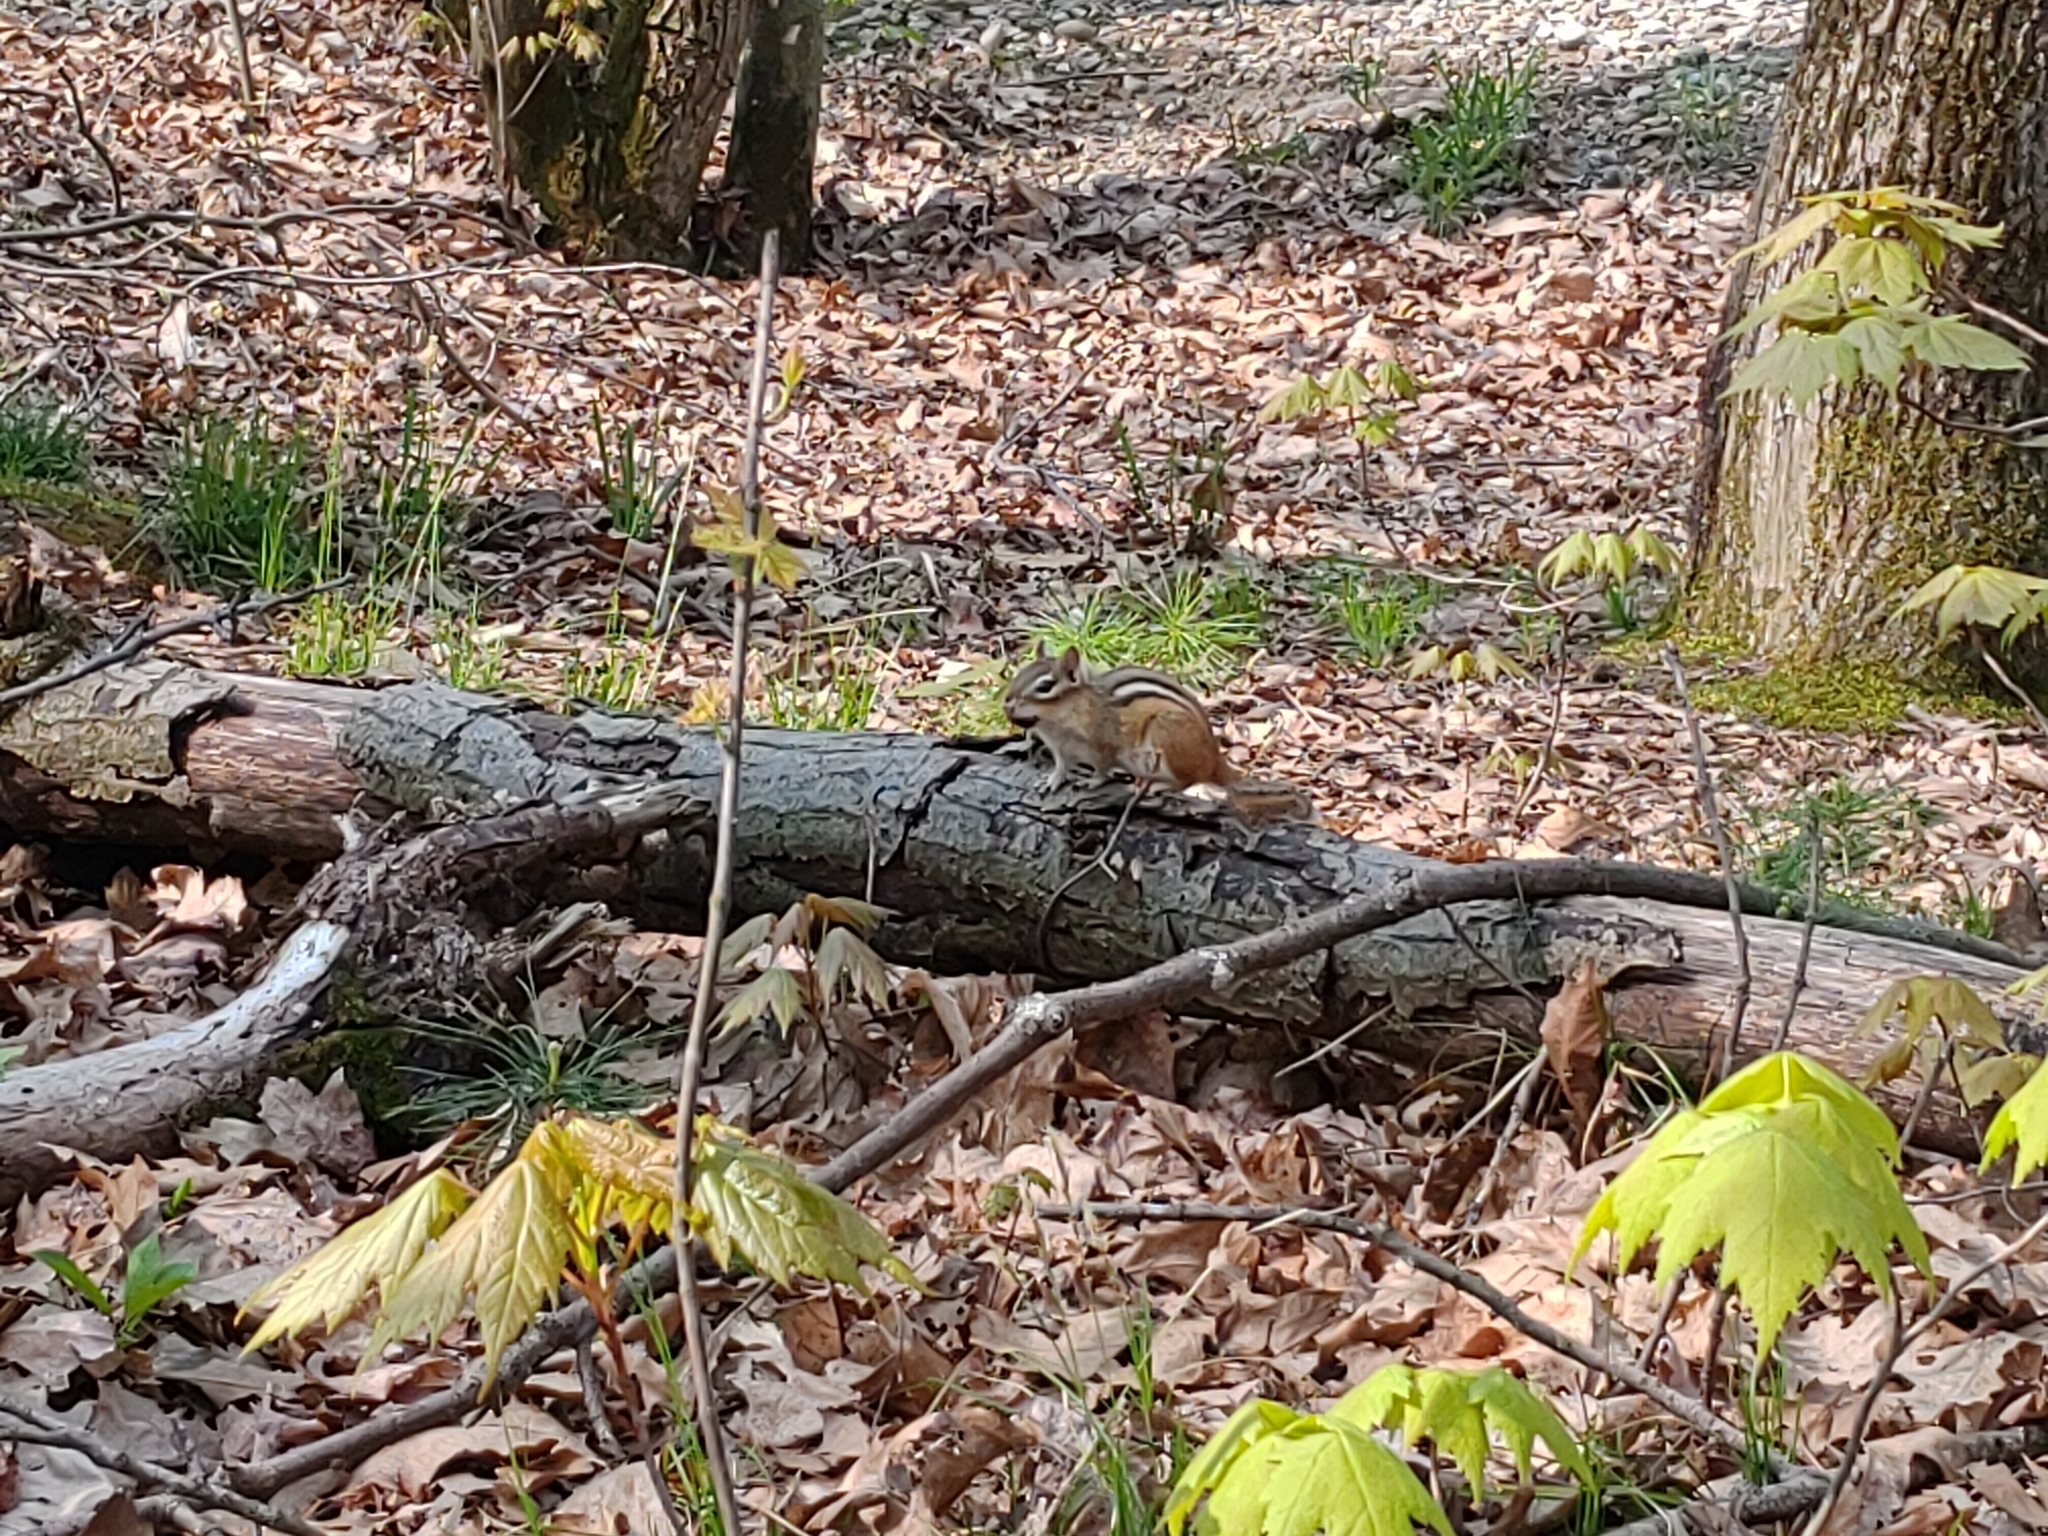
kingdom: Animalia
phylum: Chordata
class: Mammalia
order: Rodentia
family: Sciuridae
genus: Tamias
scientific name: Tamias striatus
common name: Eastern chipmunk
